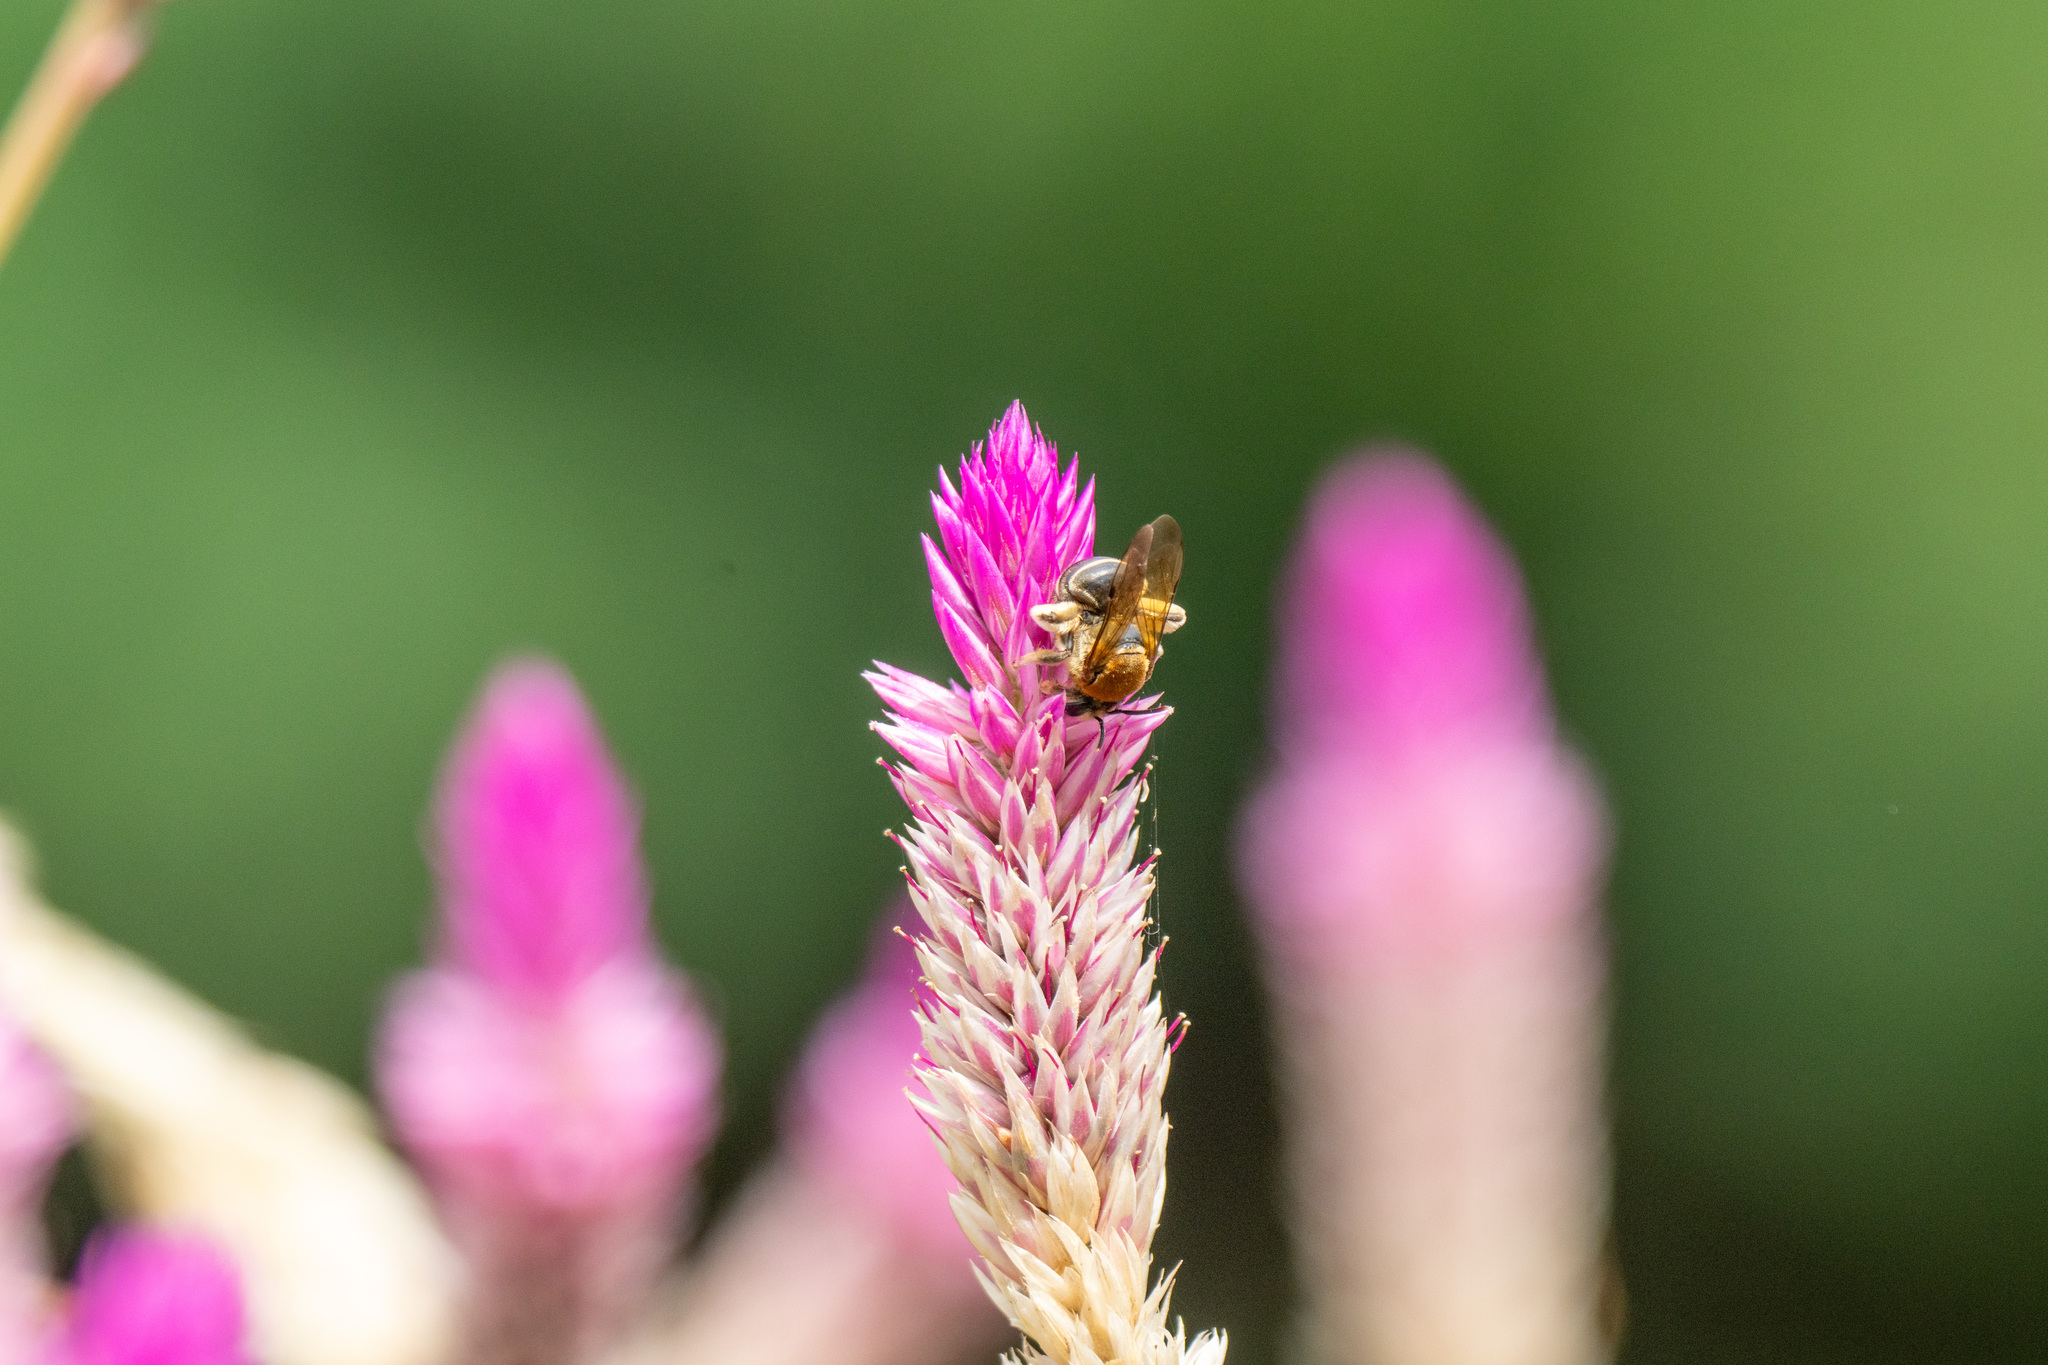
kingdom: Animalia
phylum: Arthropoda
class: Insecta
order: Hymenoptera
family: Halictidae
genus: Nomia
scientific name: Nomia thoracica
